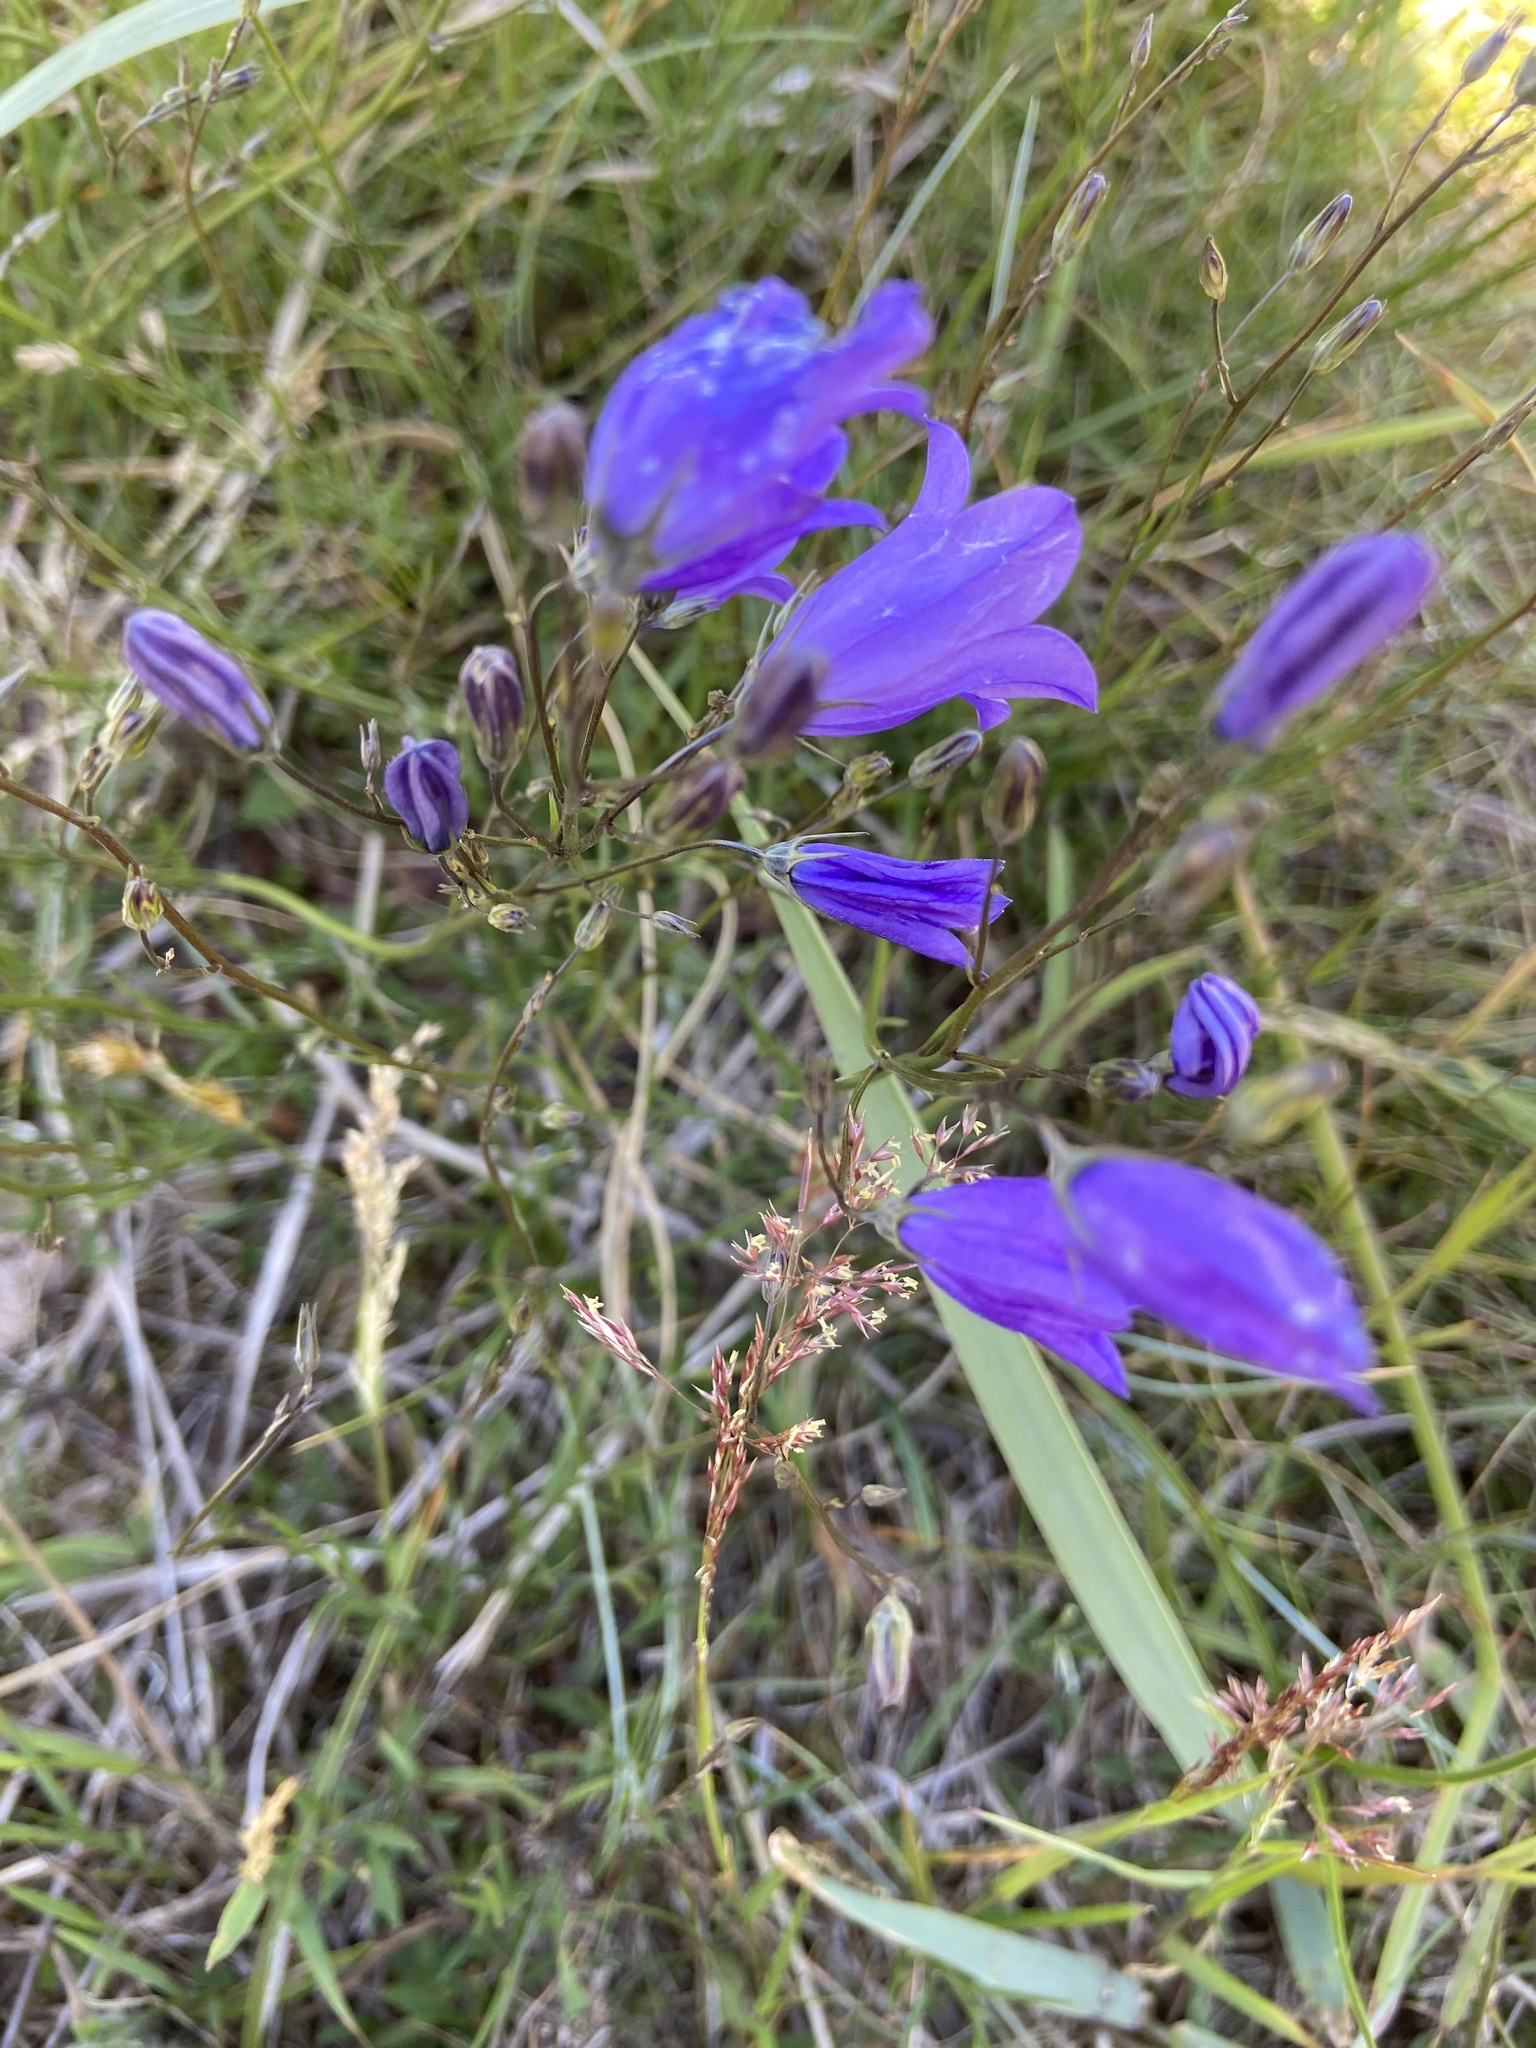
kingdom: Plantae
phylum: Tracheophyta
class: Magnoliopsida
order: Asterales
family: Campanulaceae
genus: Campanula
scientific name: Campanula rotundifolia
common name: Harebell
